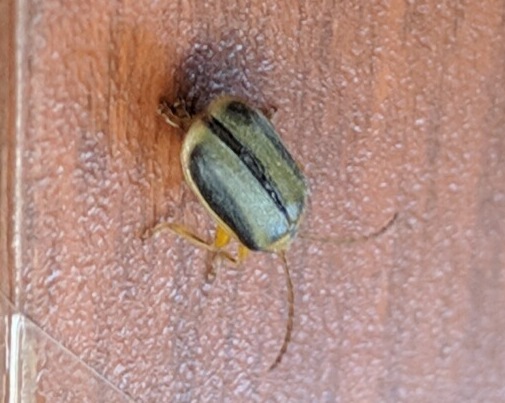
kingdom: Animalia
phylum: Arthropoda
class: Insecta
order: Coleoptera
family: Chrysomelidae
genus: Xanthogaleruca
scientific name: Xanthogaleruca luteola
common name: Elm leaf beetle
